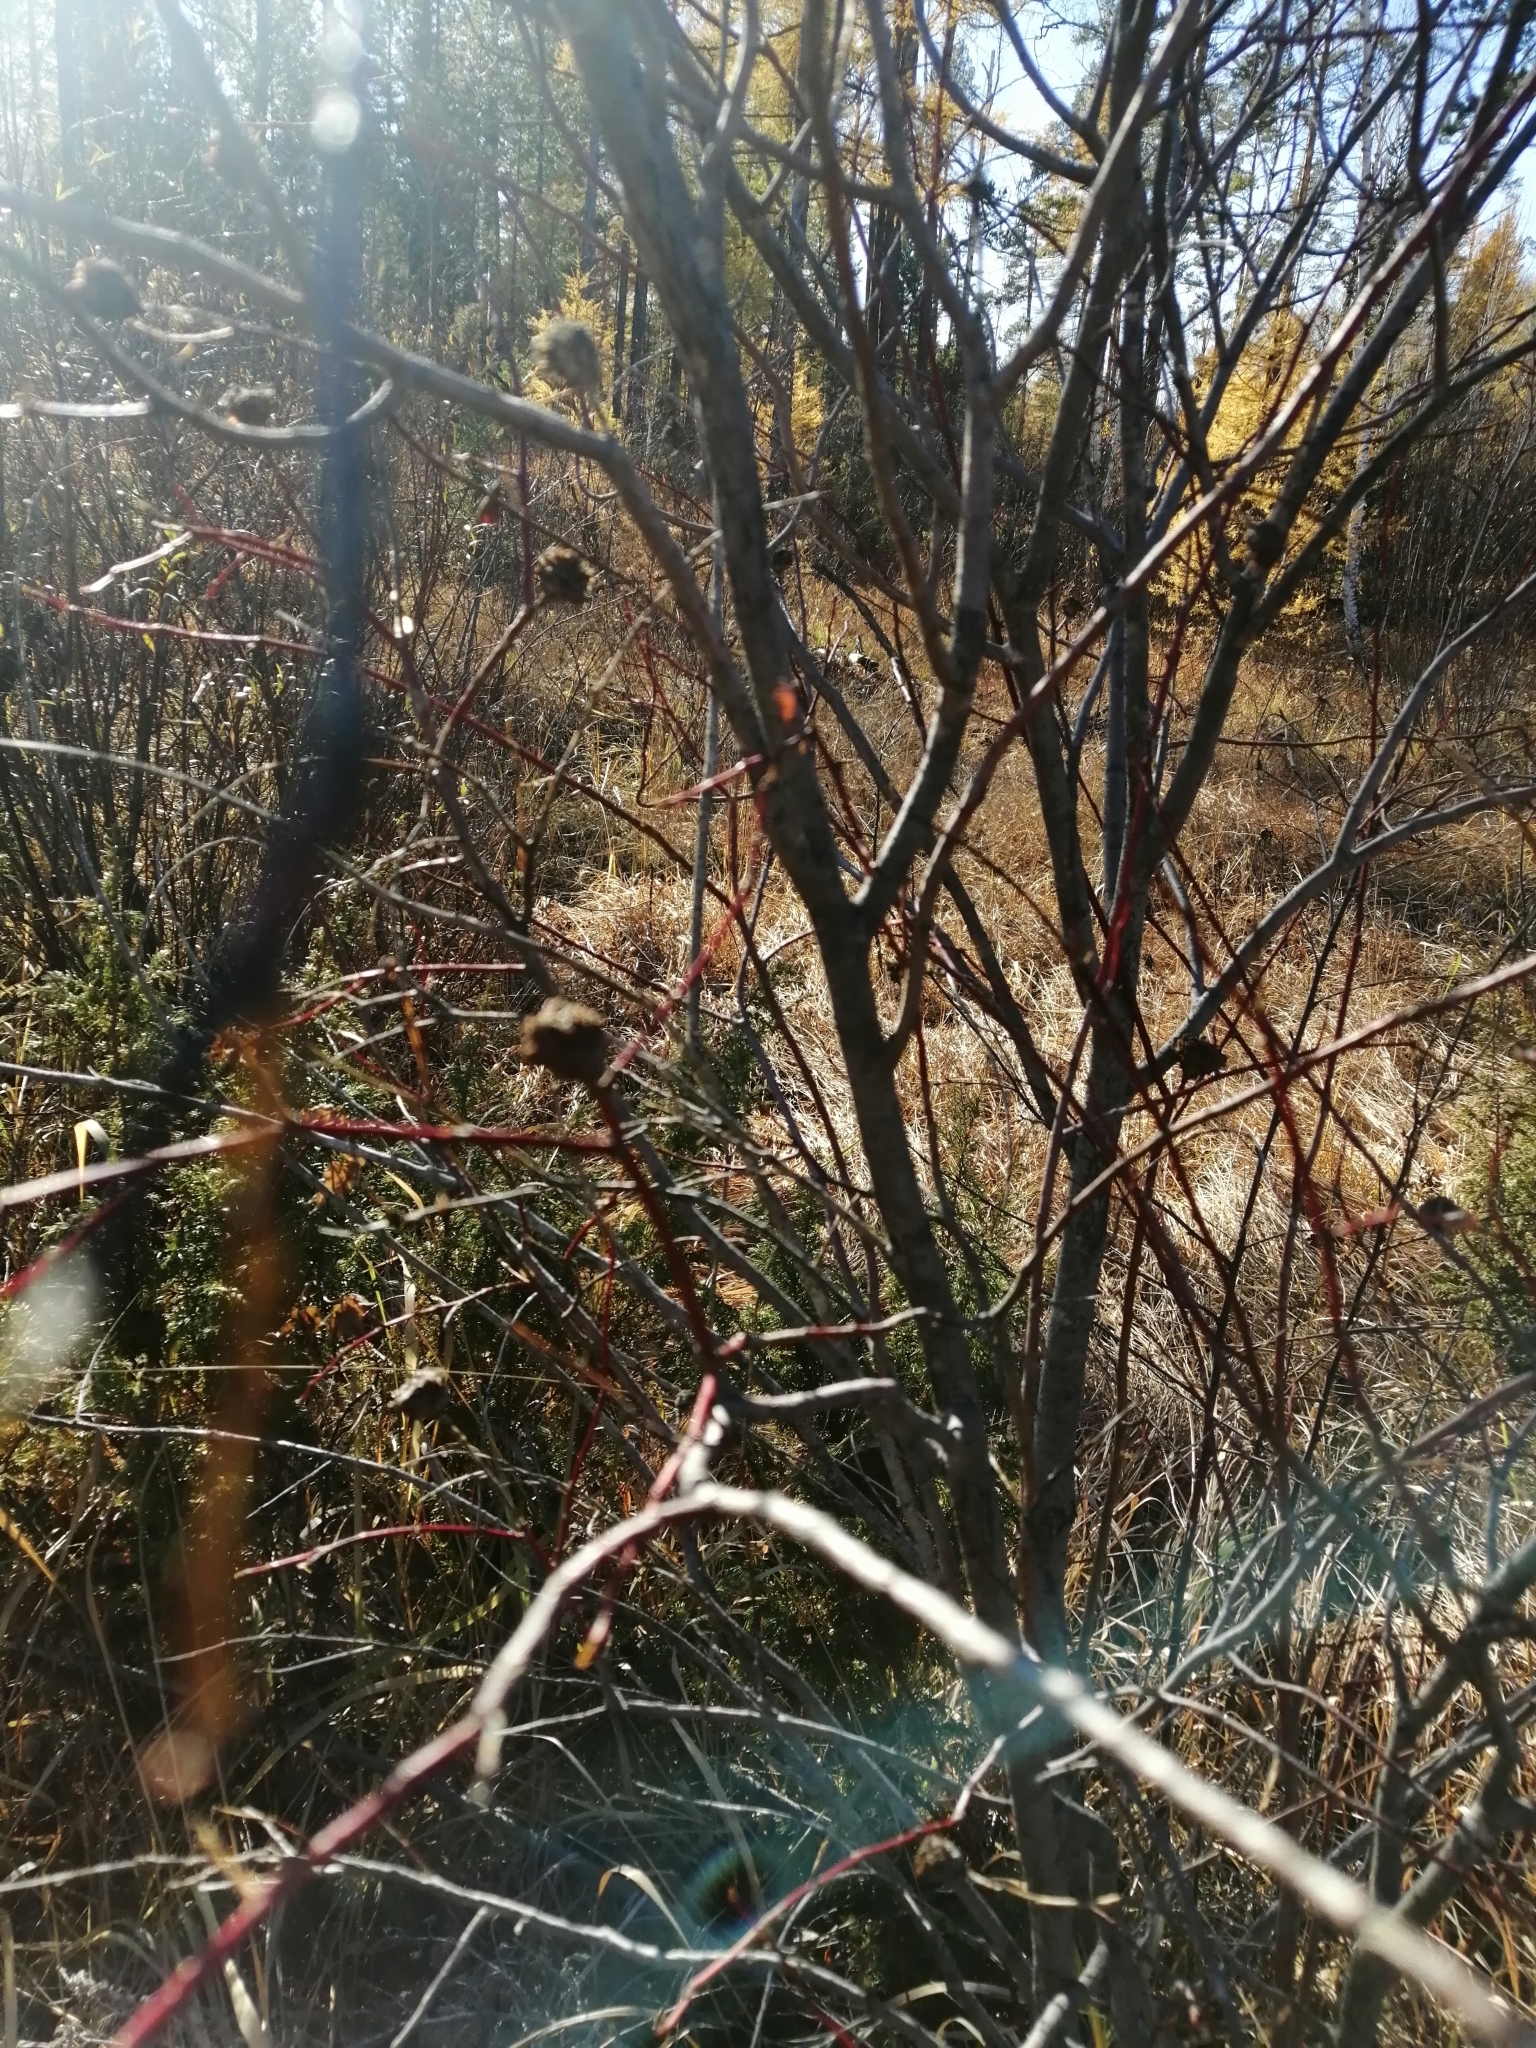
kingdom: Animalia
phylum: Arthropoda
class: Insecta
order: Diptera
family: Cecidomyiidae
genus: Rabdophaga
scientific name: Rabdophaga rosaria
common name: Willow rose gall midge
